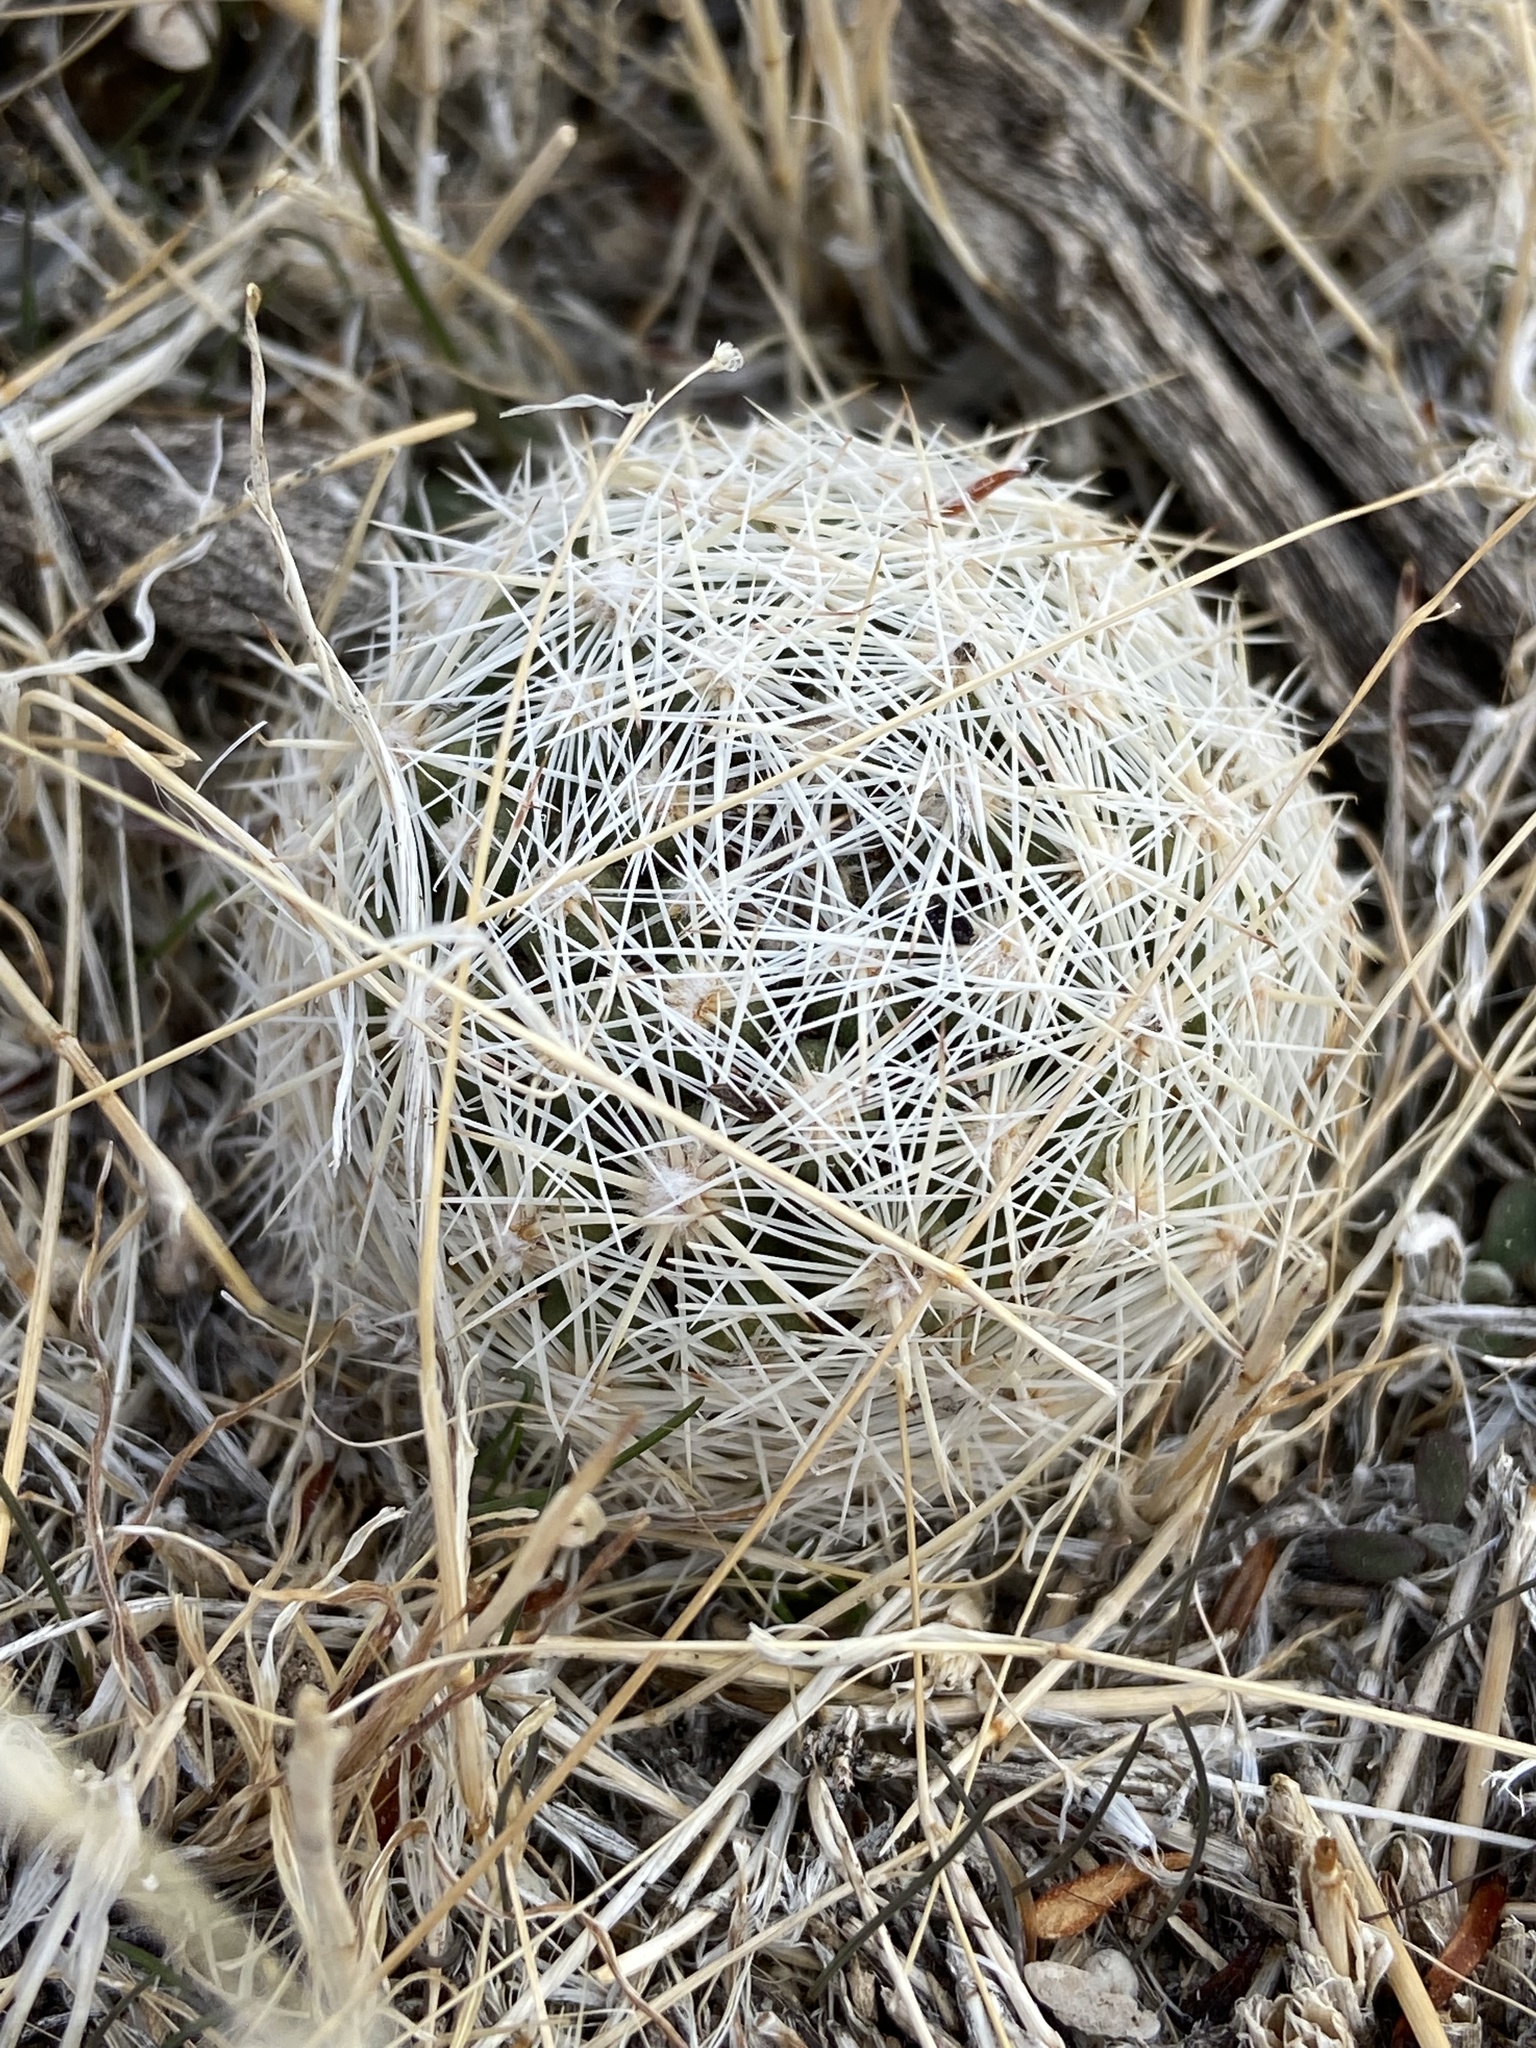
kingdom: Plantae
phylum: Tracheophyta
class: Magnoliopsida
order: Caryophyllales
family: Cactaceae
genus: Pelecyphora
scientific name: Pelecyphora vivipara
